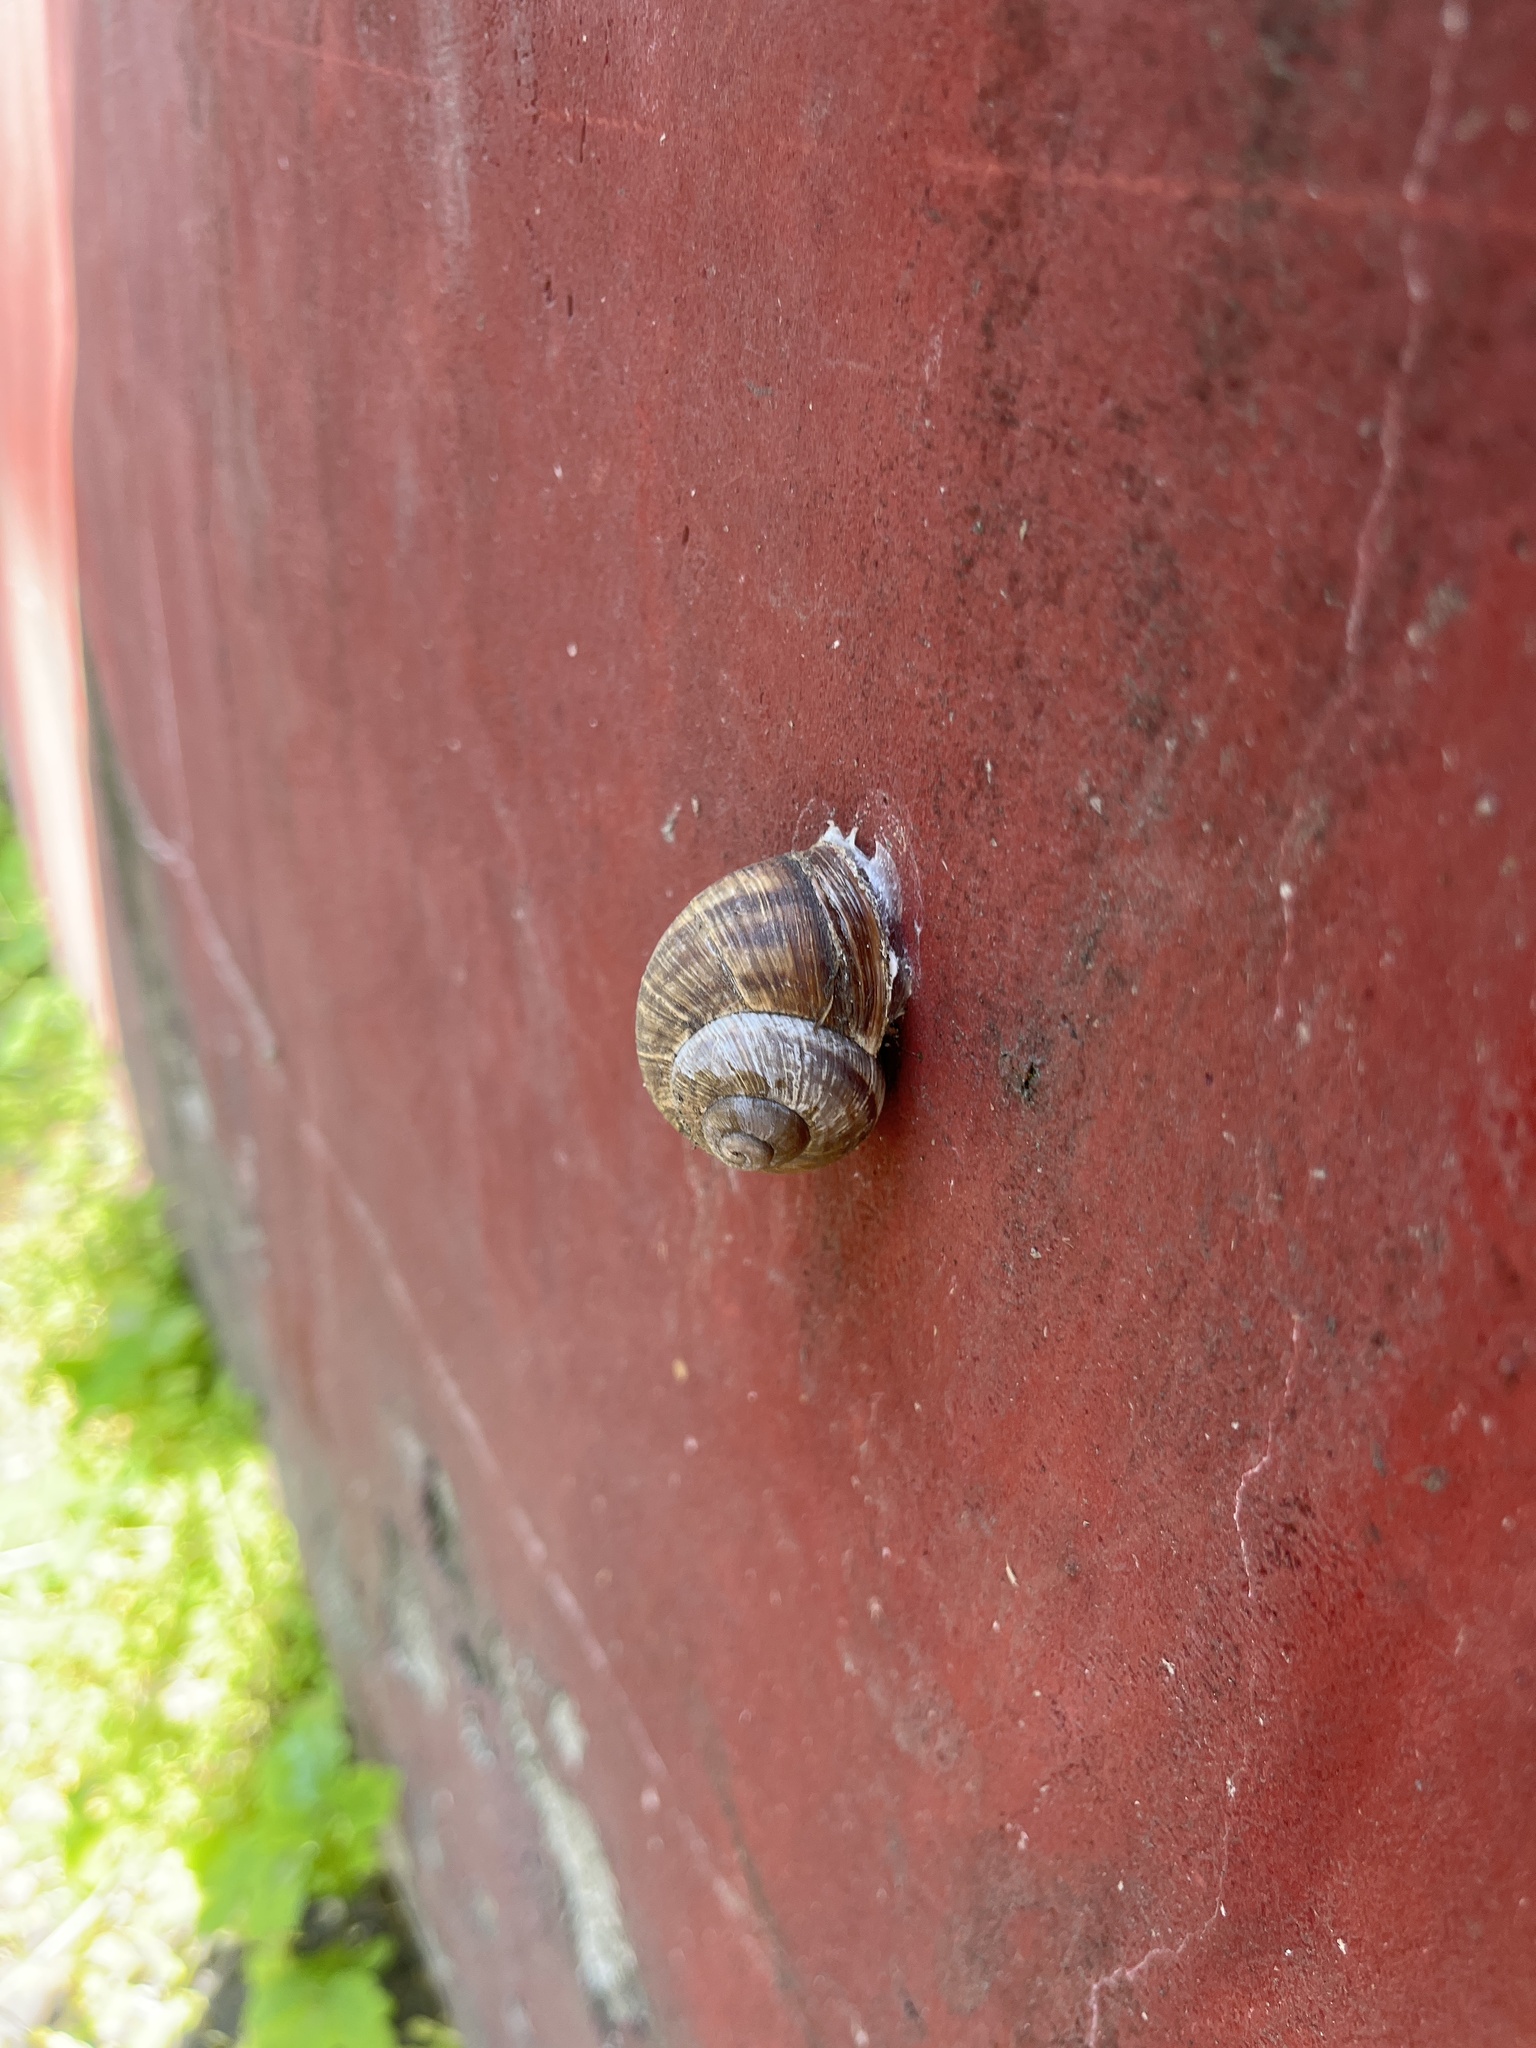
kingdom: Animalia
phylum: Mollusca
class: Gastropoda
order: Stylommatophora
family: Helicidae
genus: Helix
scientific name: Helix pomatia
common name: Roman snail
